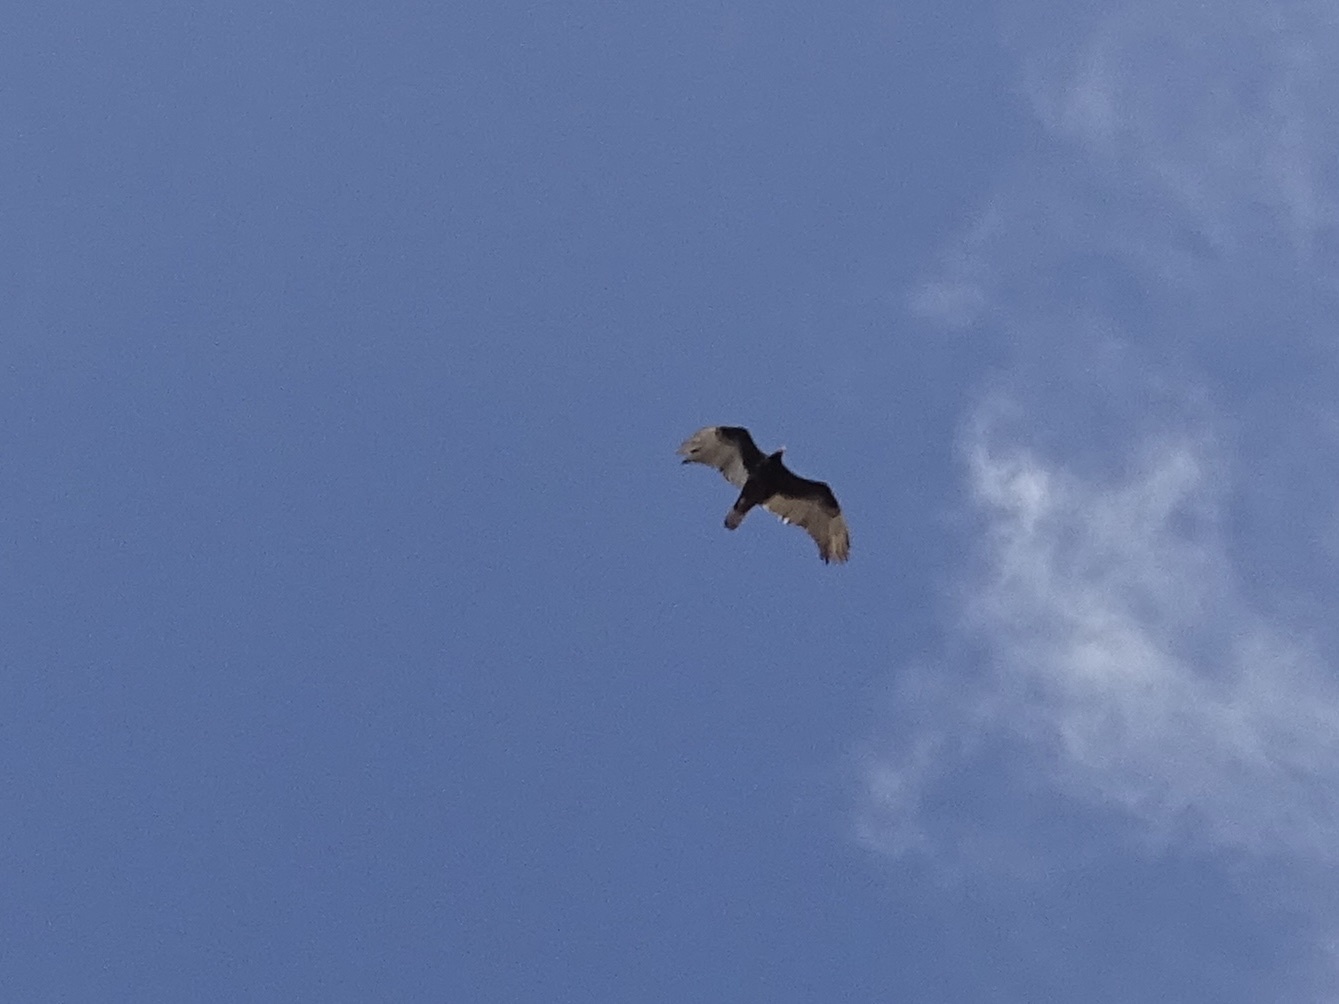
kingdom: Animalia
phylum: Chordata
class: Aves
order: Accipitriformes
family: Cathartidae
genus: Cathartes
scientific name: Cathartes aura
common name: Turkey vulture
